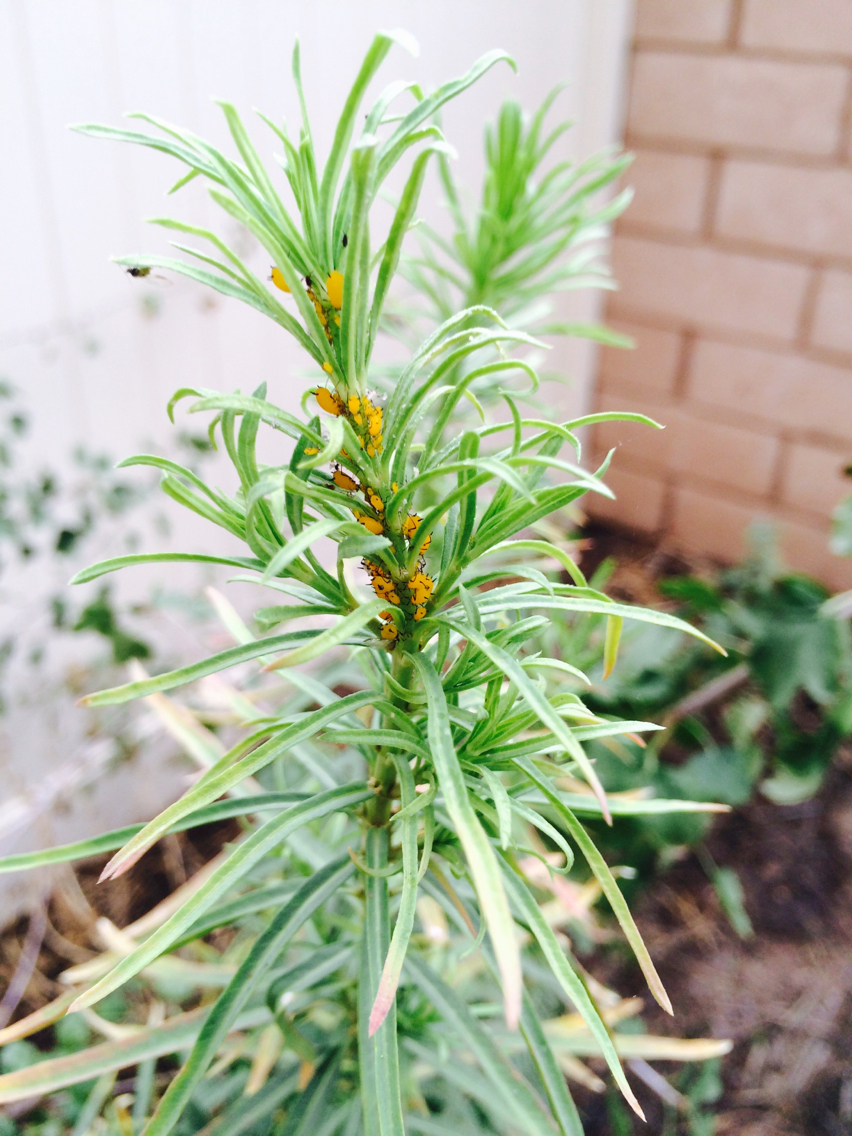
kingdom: Animalia
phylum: Arthropoda
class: Insecta
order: Hemiptera
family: Aphididae
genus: Aphis
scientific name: Aphis nerii
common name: Oleander aphid
